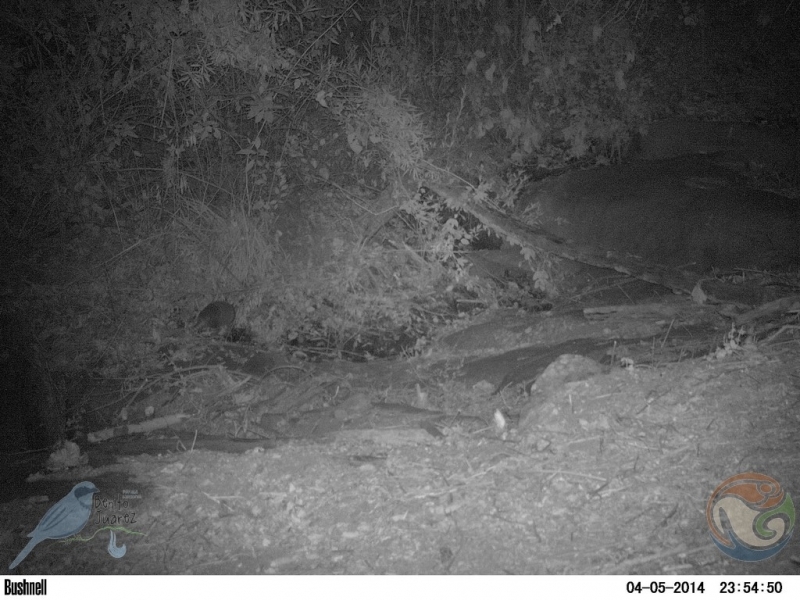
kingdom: Animalia
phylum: Chordata
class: Mammalia
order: Cingulata
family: Dasypodidae
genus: Dasypus
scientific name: Dasypus novemcinctus
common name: Nine-banded armadillo
